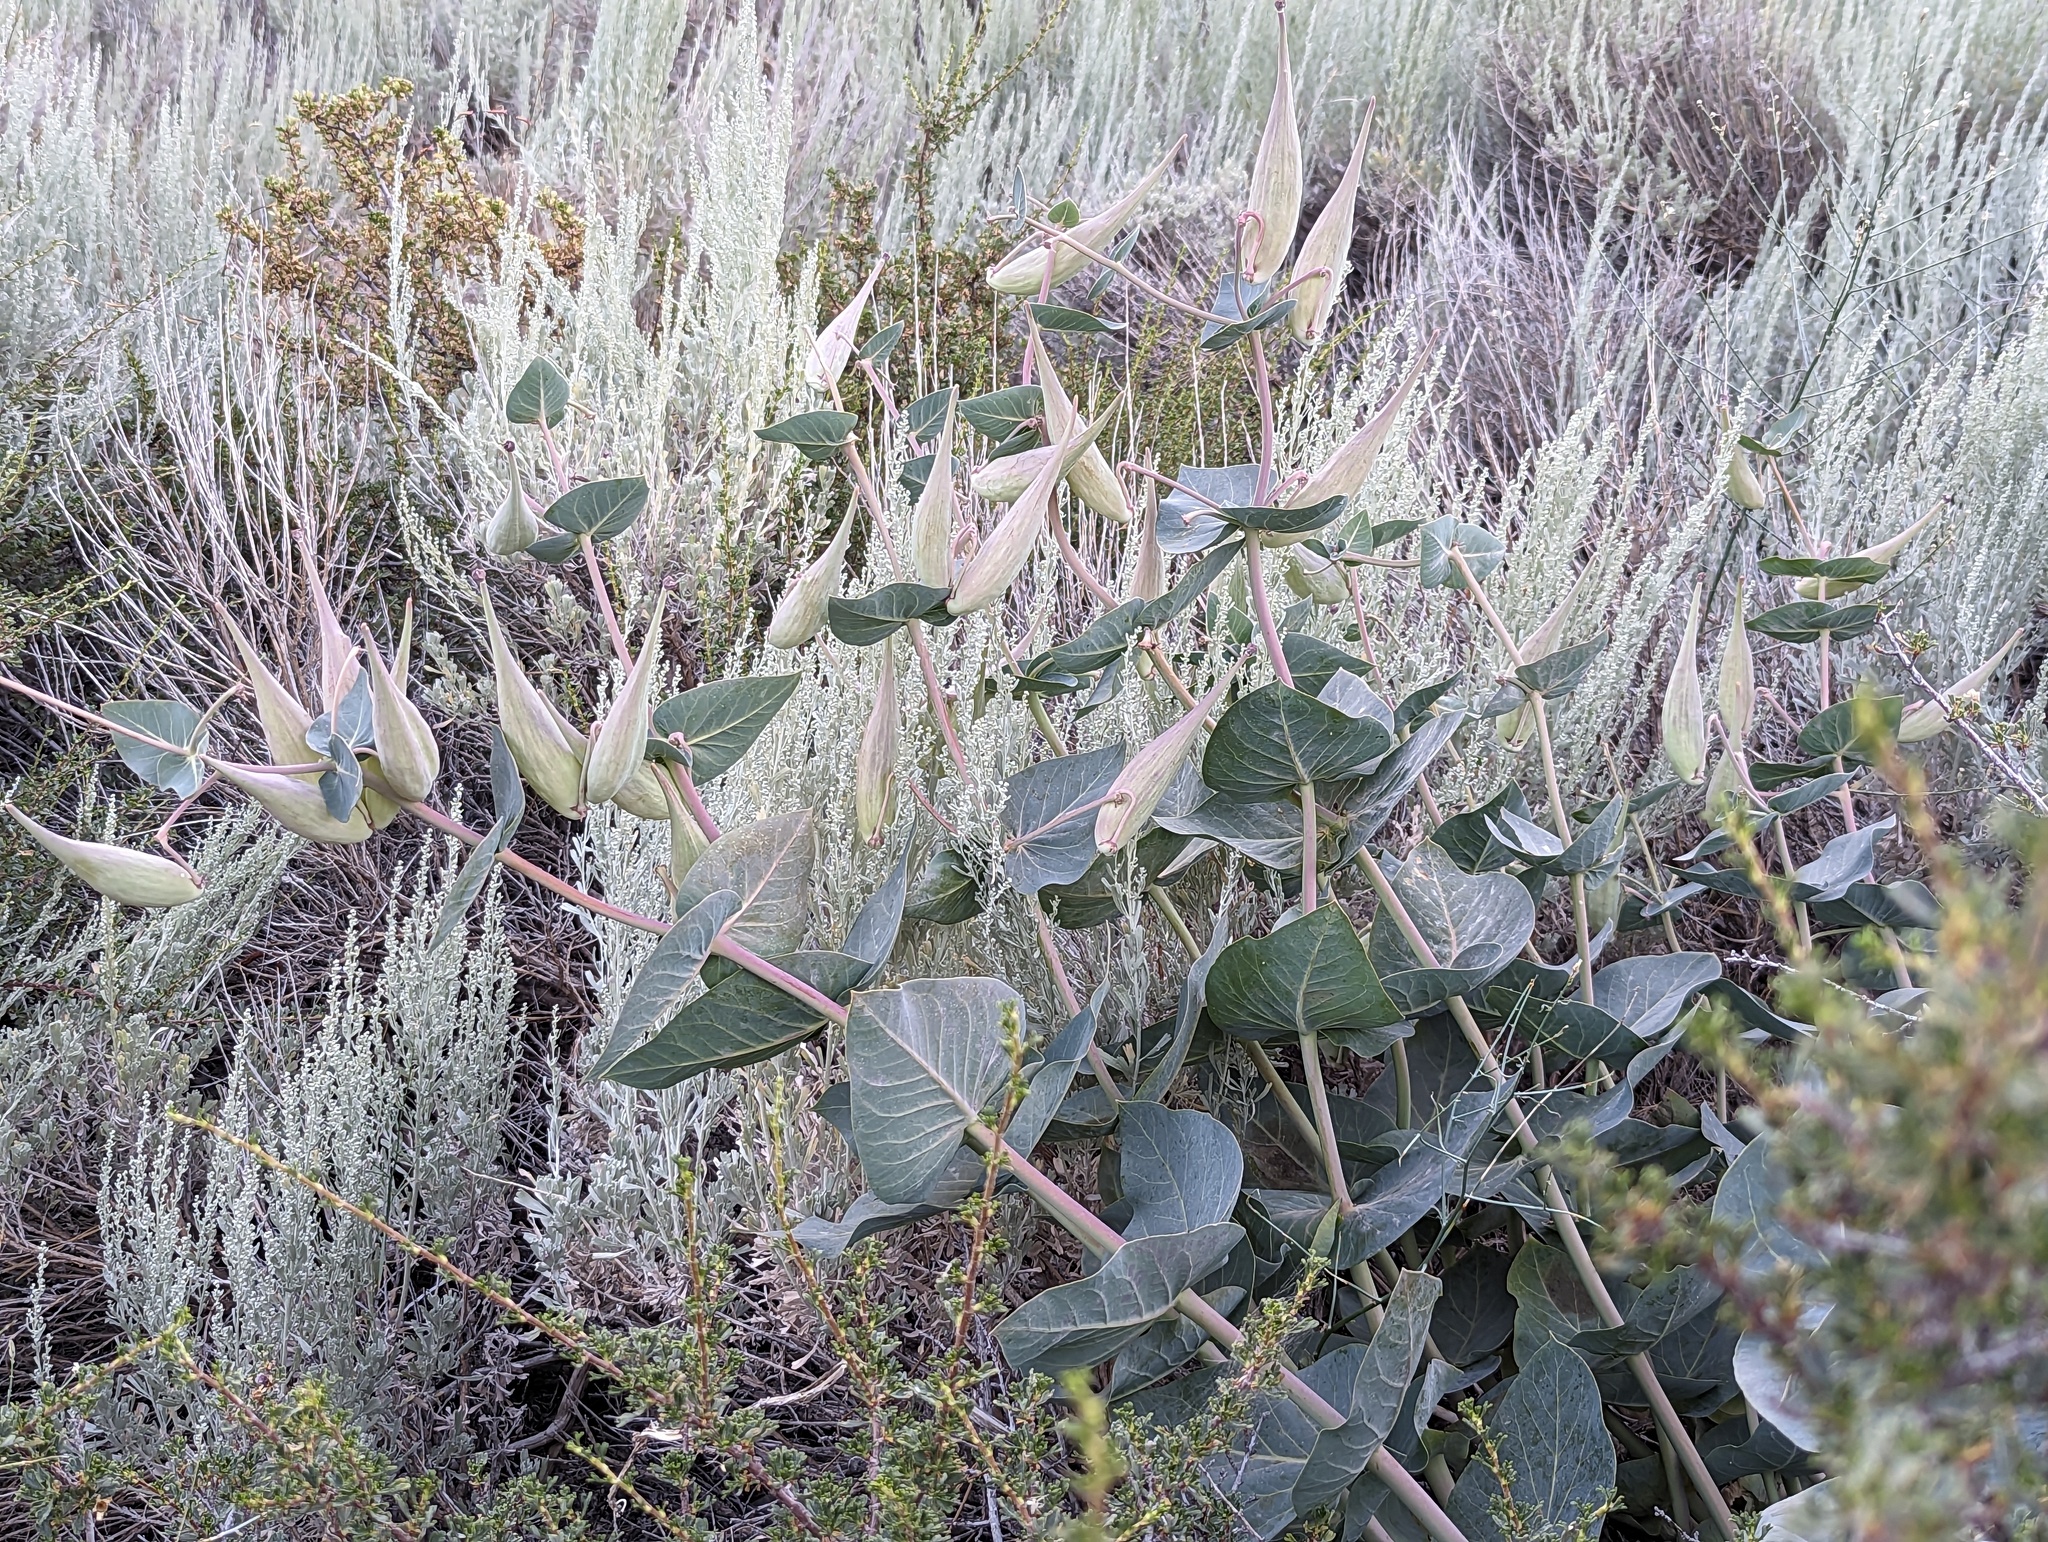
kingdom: Plantae
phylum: Tracheophyta
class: Magnoliopsida
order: Gentianales
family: Apocynaceae
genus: Asclepias
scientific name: Asclepias cordifolia
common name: Purple milkweed
